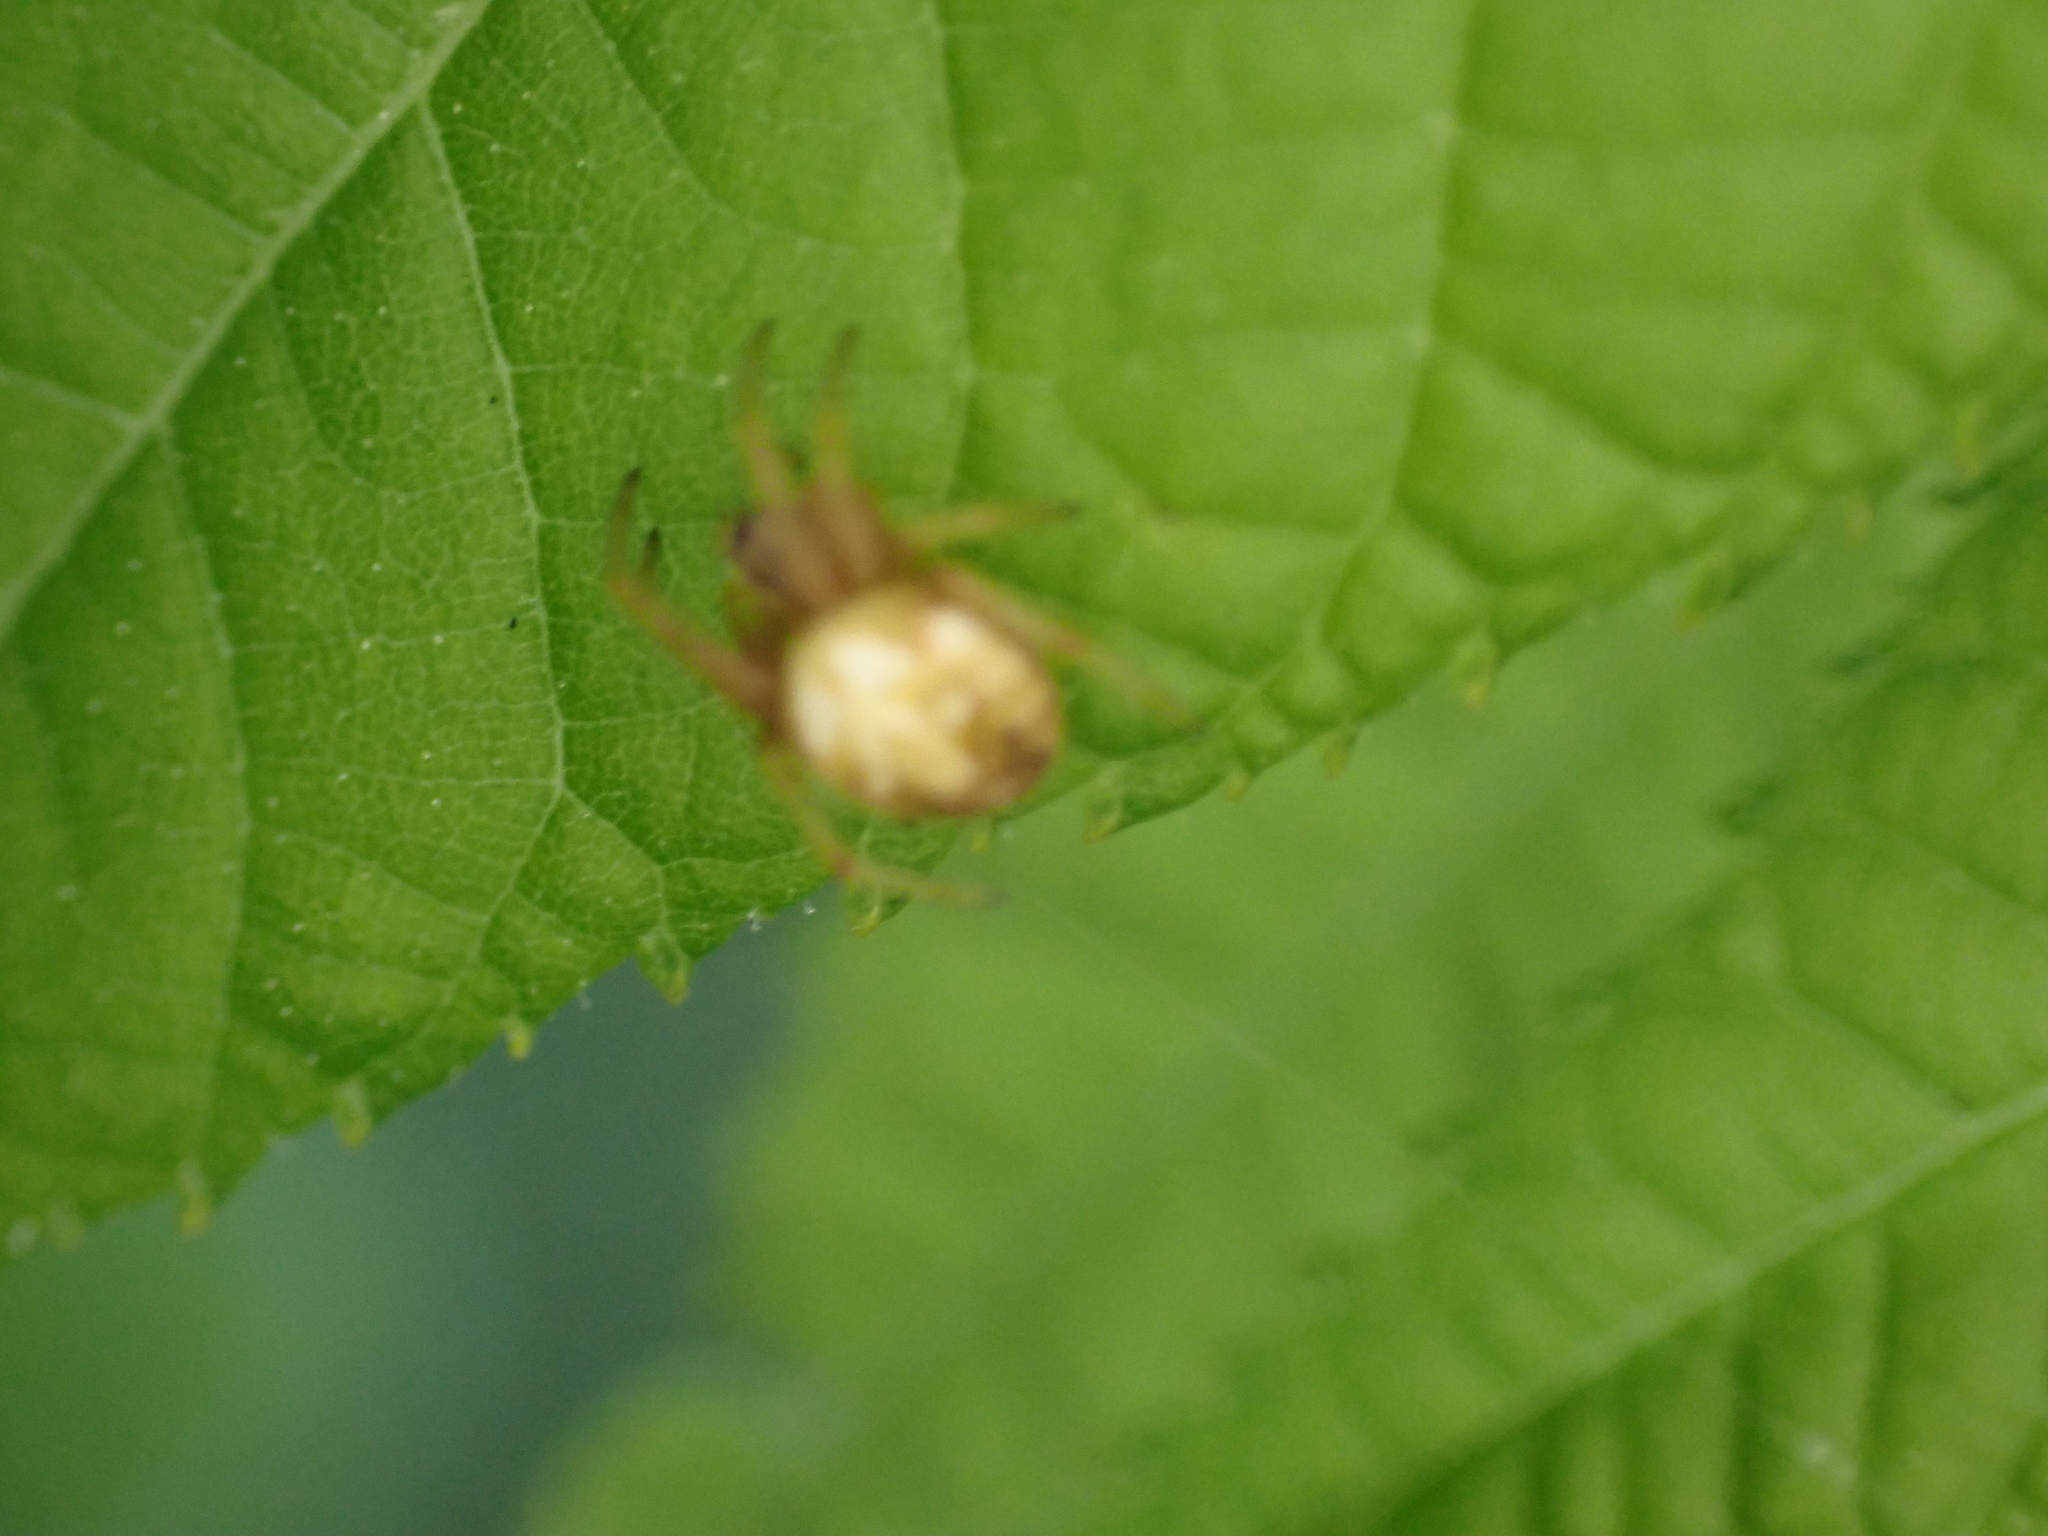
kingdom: Animalia
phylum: Arthropoda
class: Arachnida
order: Araneae
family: Araneidae
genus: Neoscona
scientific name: Neoscona arabesca
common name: Orb weavers
